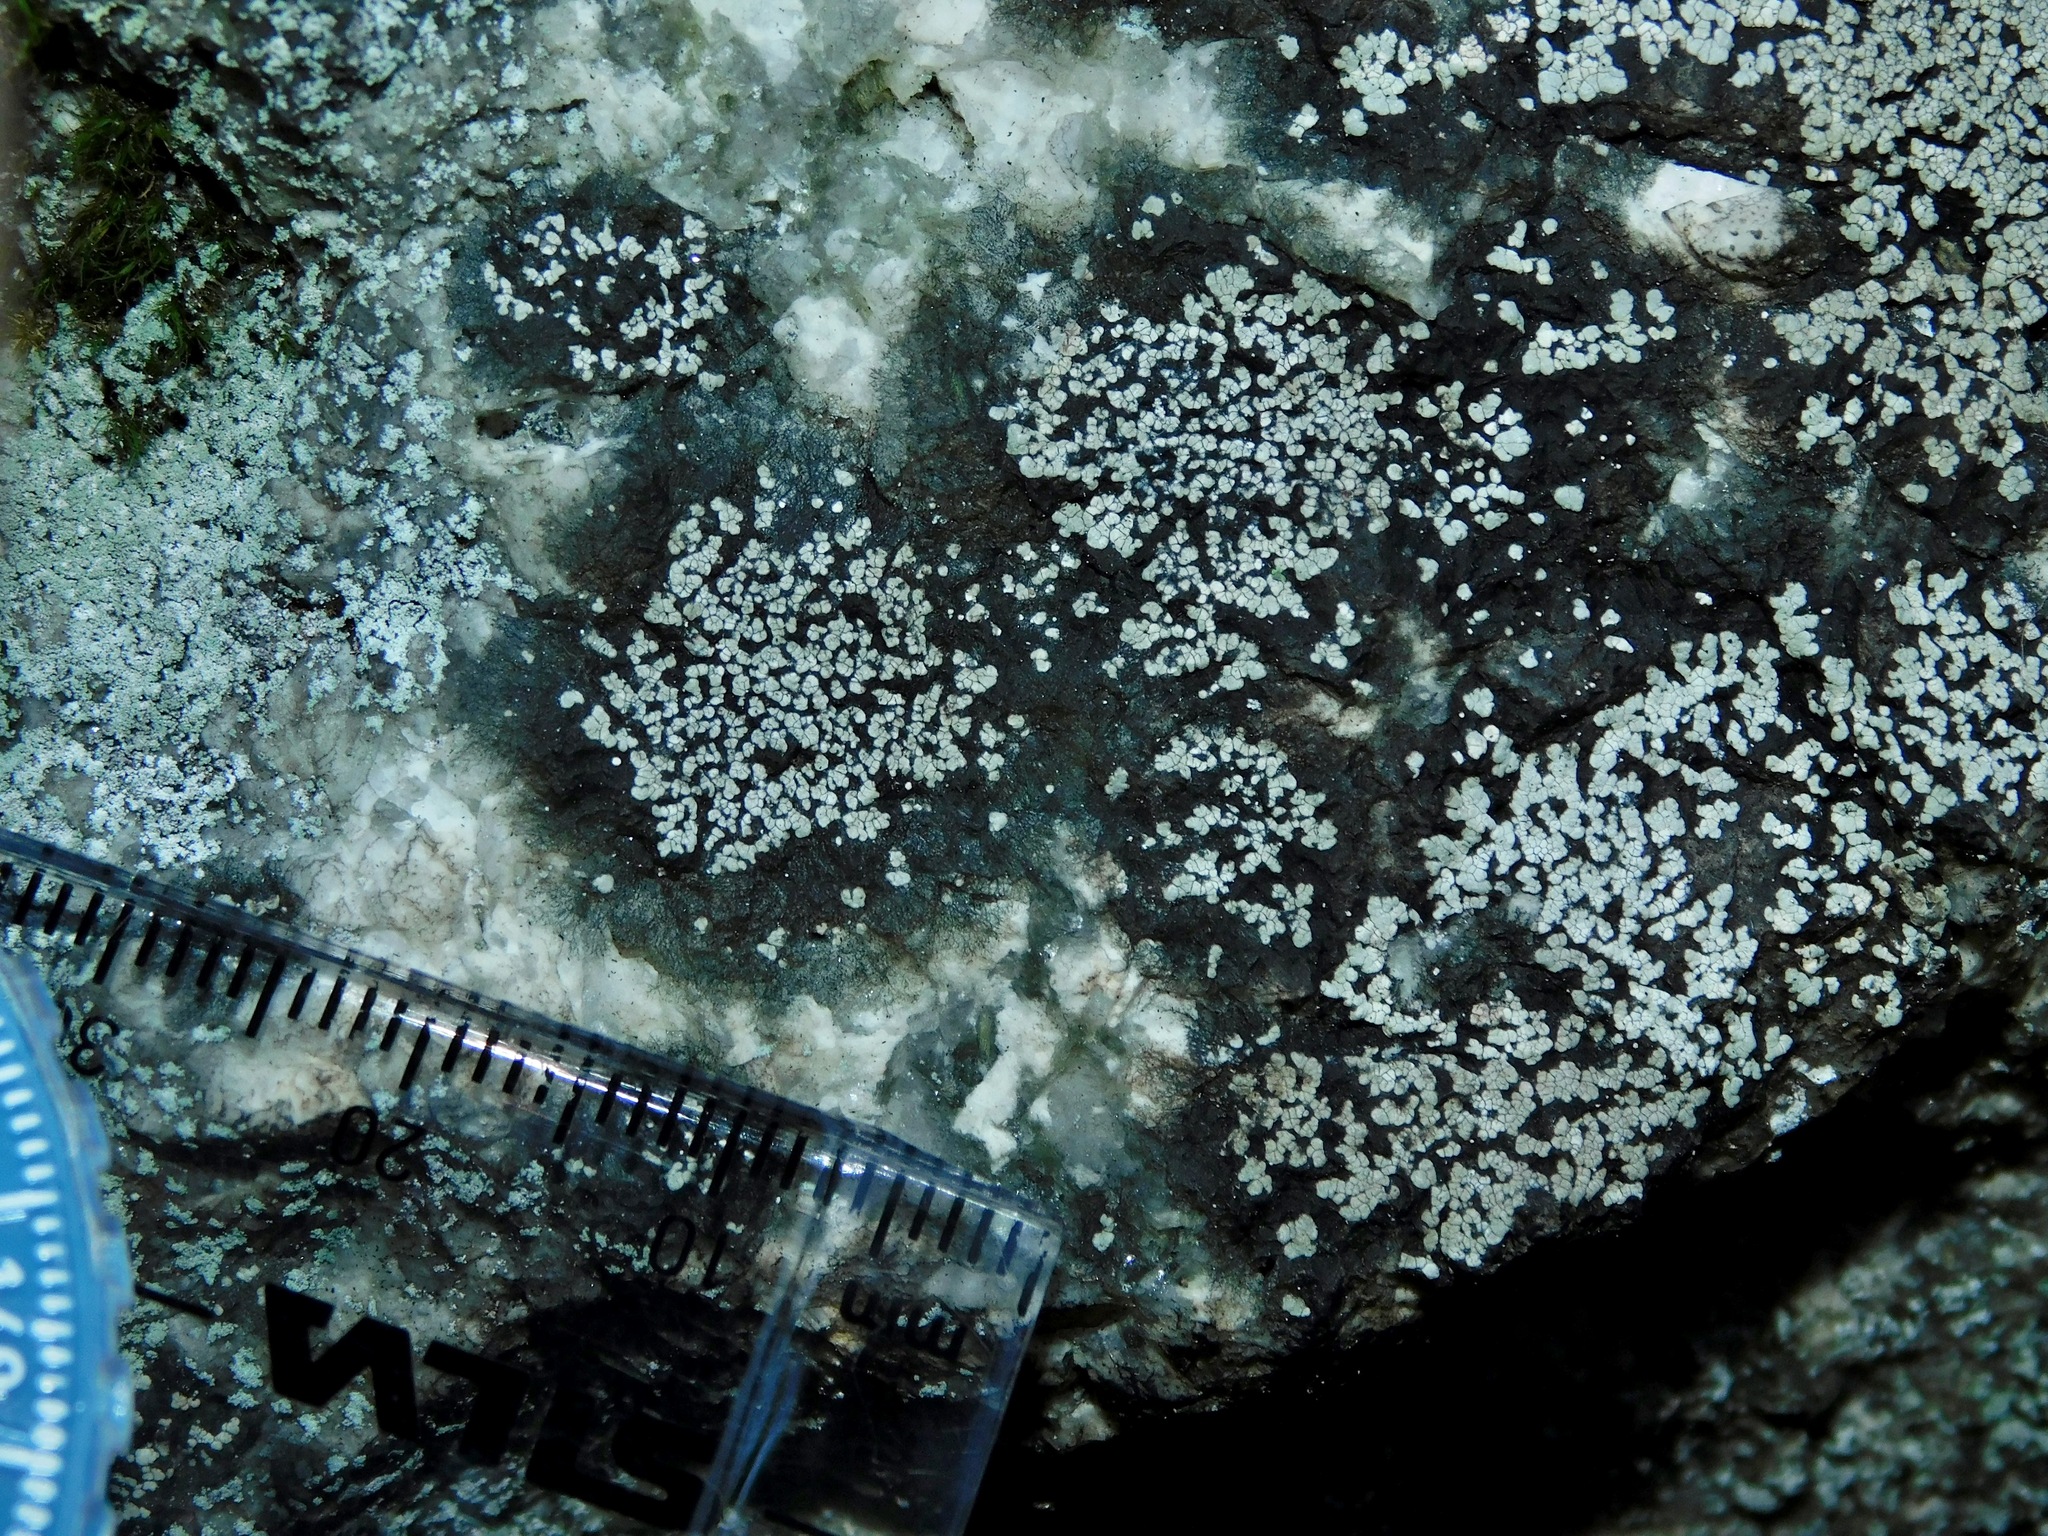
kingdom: Fungi
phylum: Ascomycota
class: Lecanoromycetes
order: Rhizocarpales
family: Rhizocarpaceae
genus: Rhizocarpon
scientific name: Rhizocarpon grande
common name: Big map lichen
